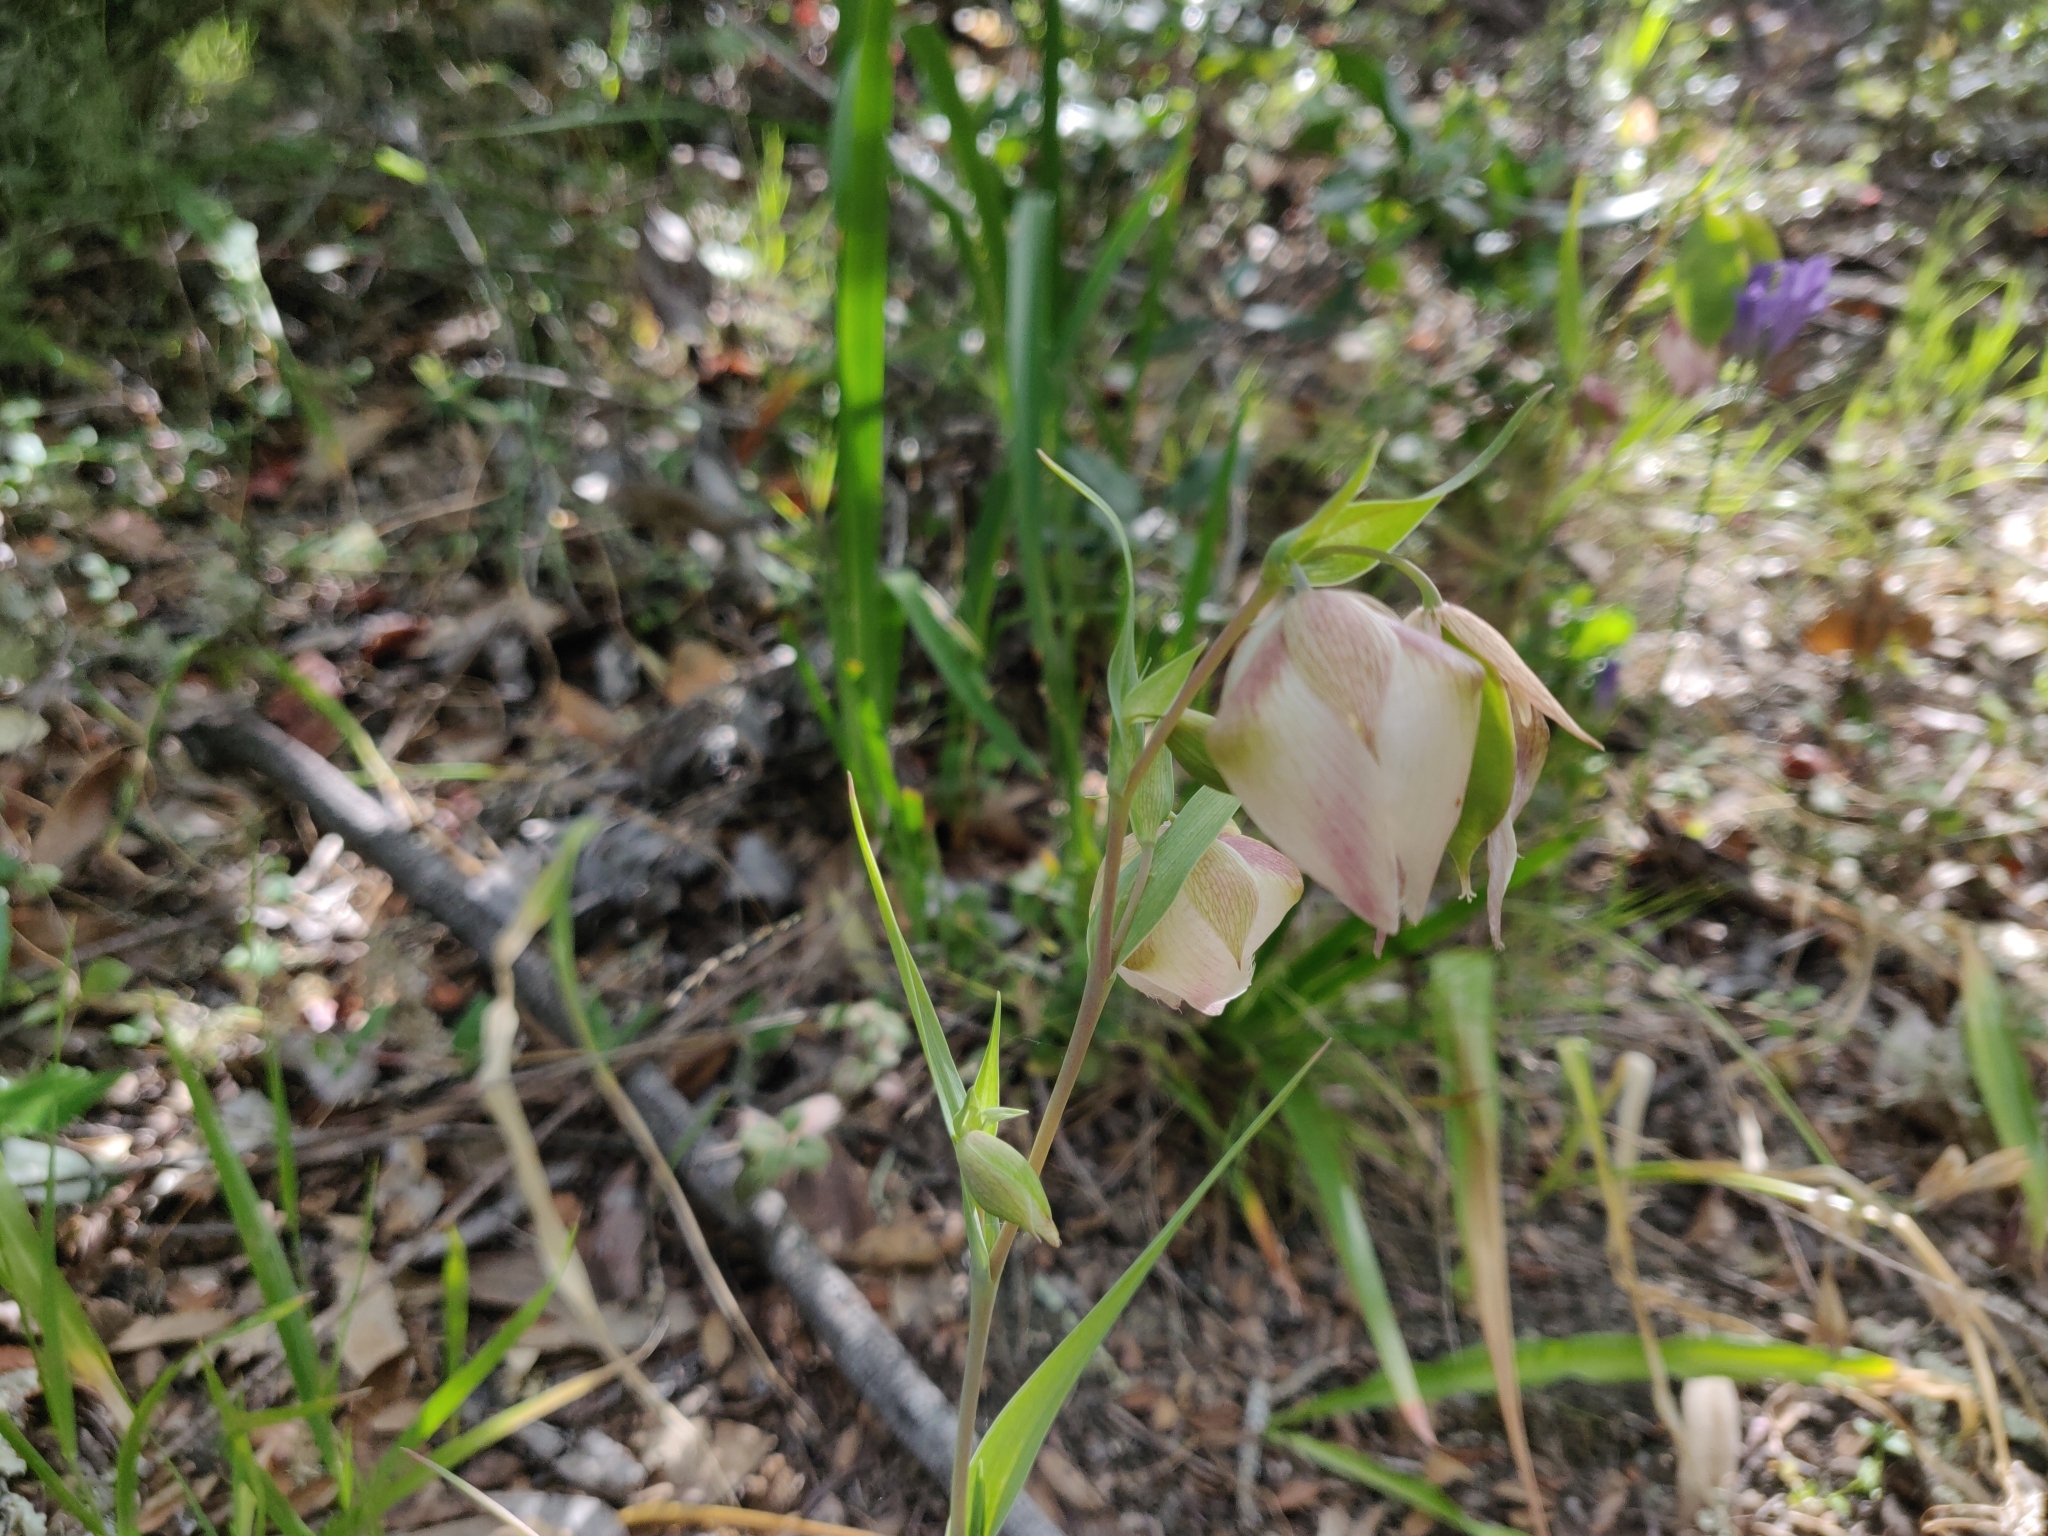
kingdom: Plantae
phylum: Tracheophyta
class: Liliopsida
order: Liliales
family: Liliaceae
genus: Calochortus
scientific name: Calochortus albus
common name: Fairy-lantern
